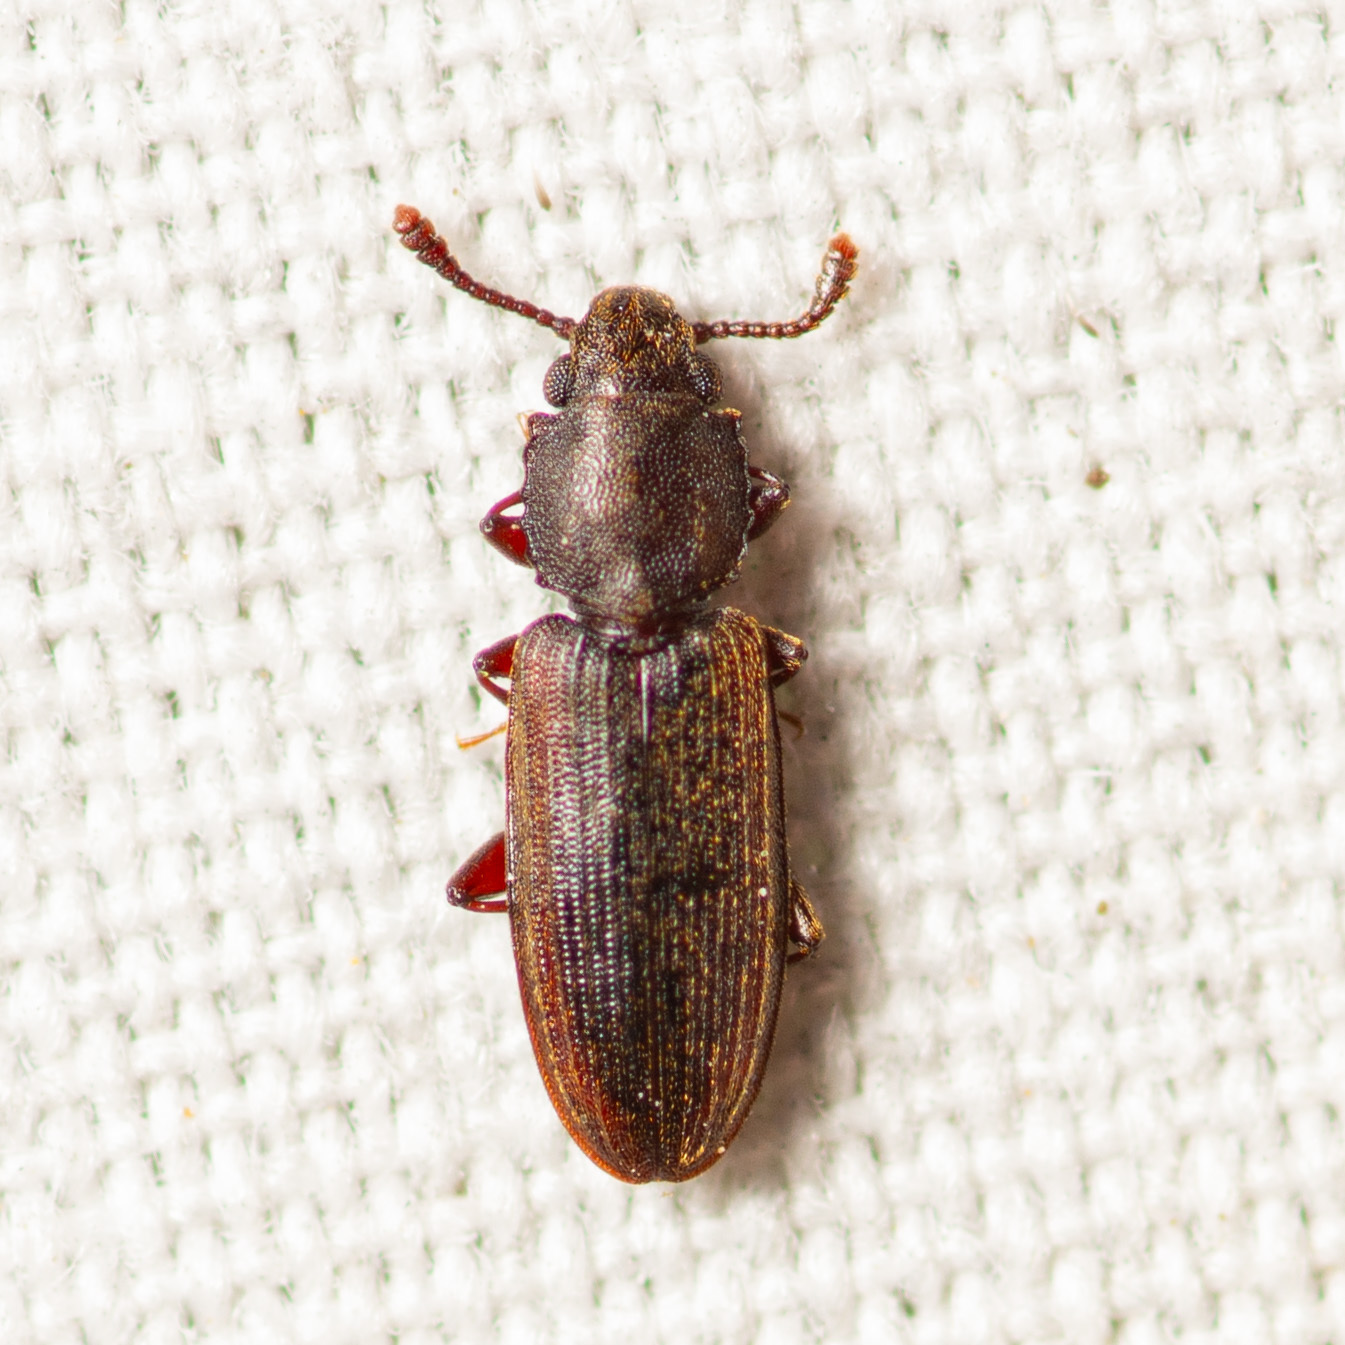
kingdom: Animalia
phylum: Arthropoda
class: Insecta
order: Coleoptera
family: Silvanidae
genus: Nausibius
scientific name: Nausibius major
